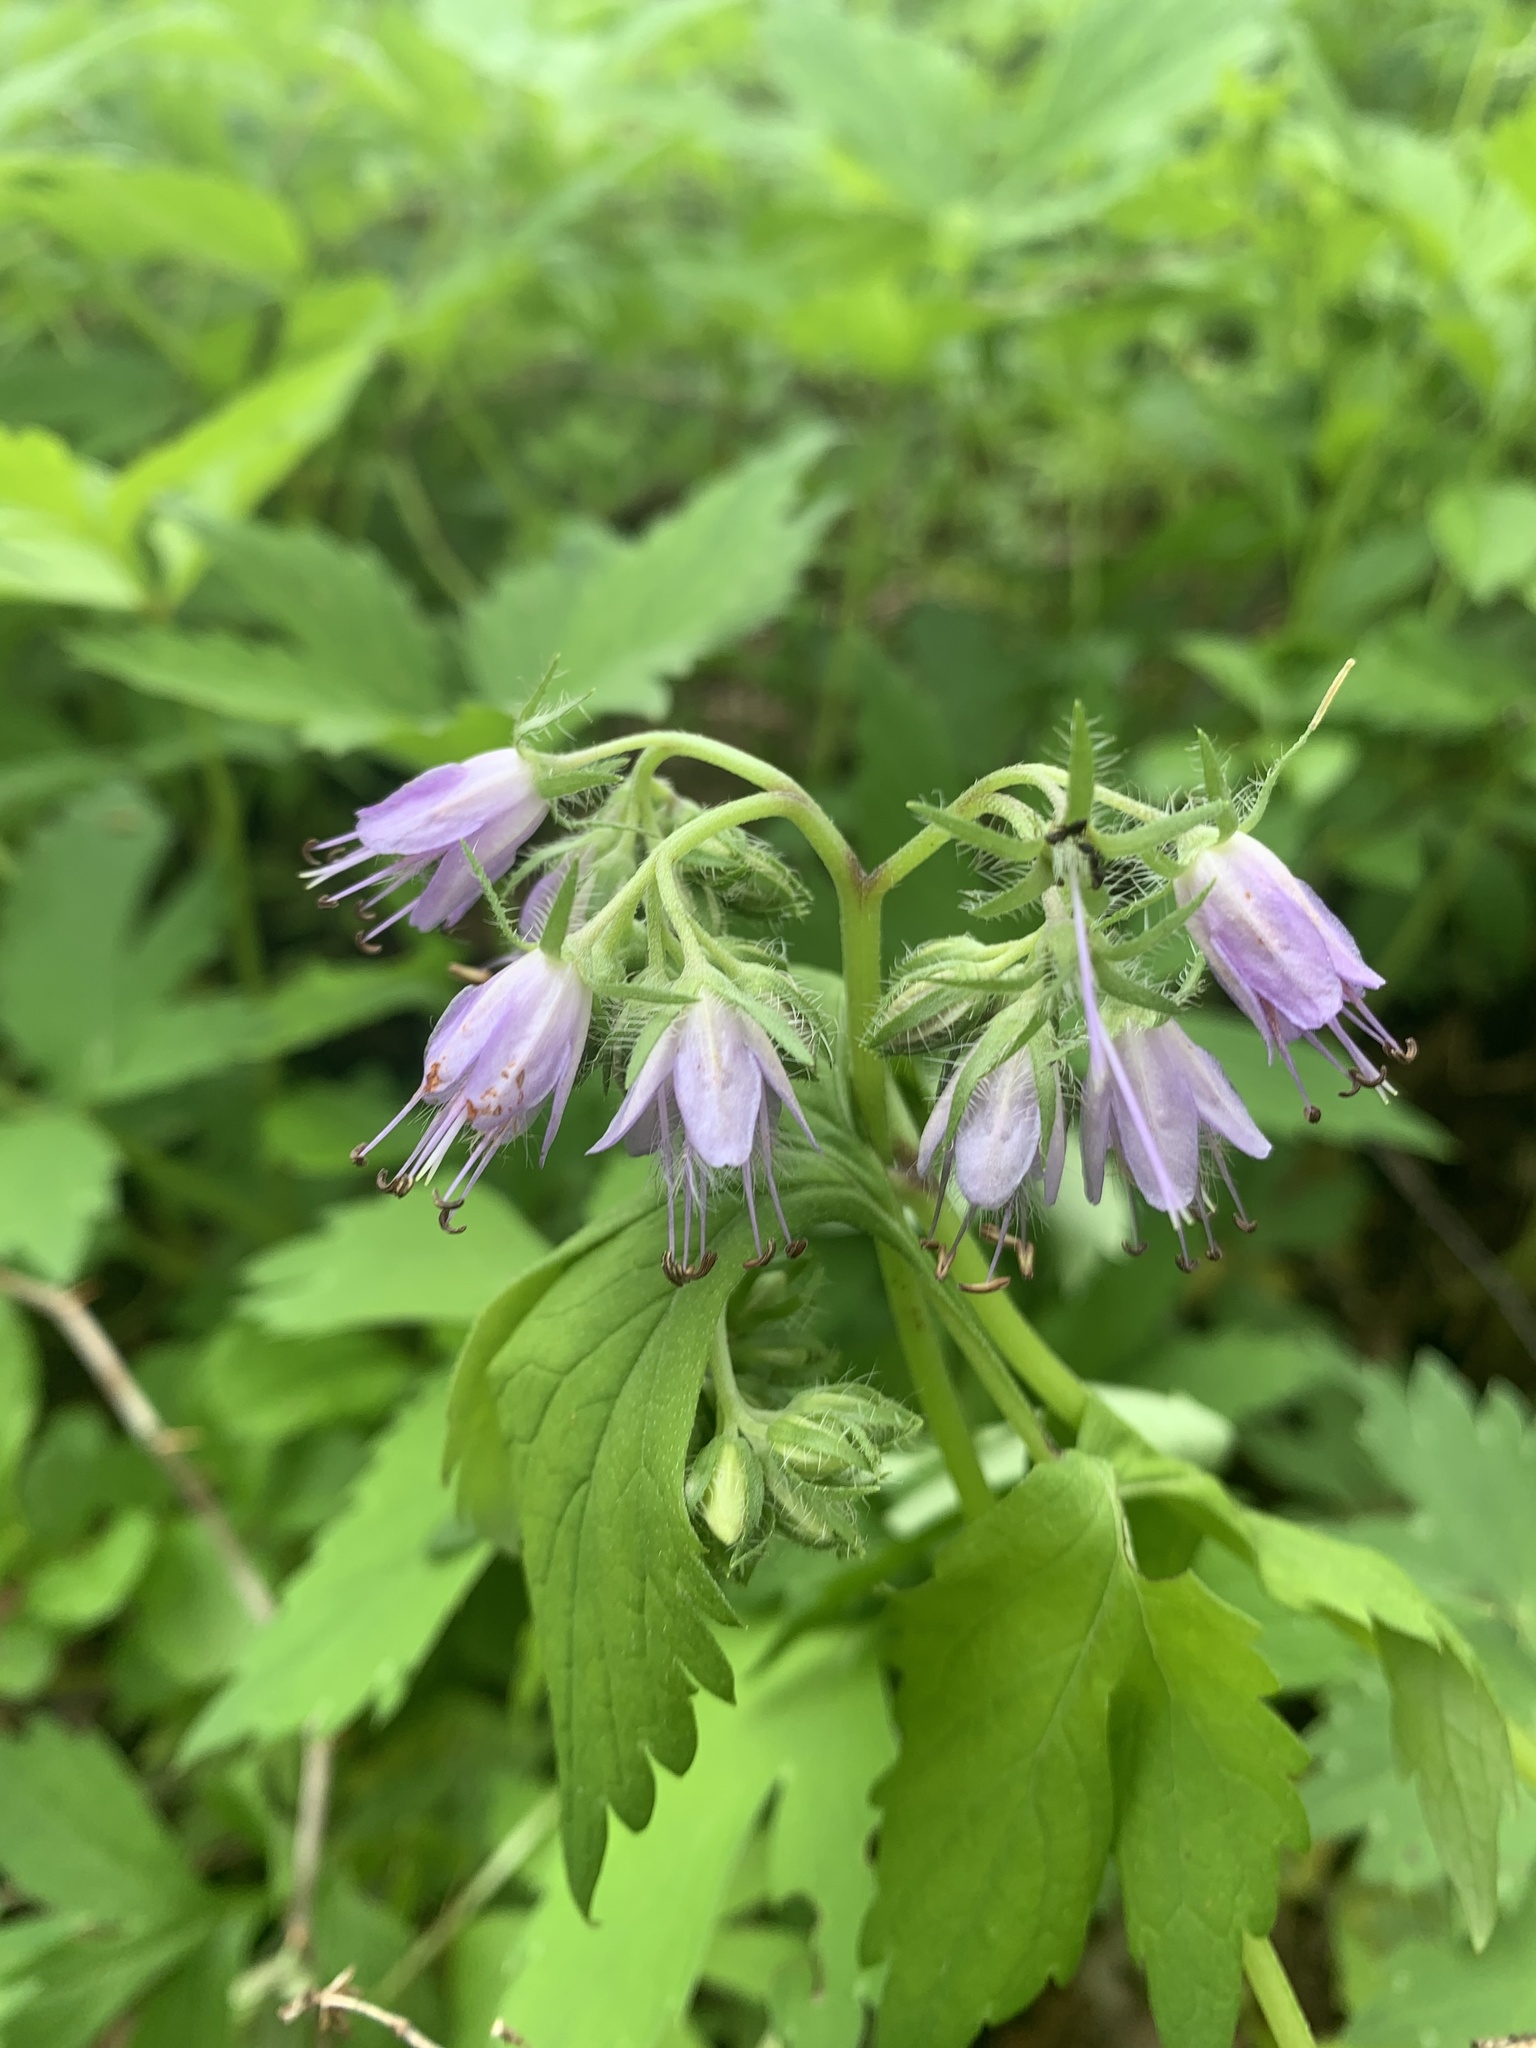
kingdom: Plantae
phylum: Tracheophyta
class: Magnoliopsida
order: Boraginales
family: Hydrophyllaceae
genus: Hydrophyllum
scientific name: Hydrophyllum virginianum
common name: Virginia waterleaf
